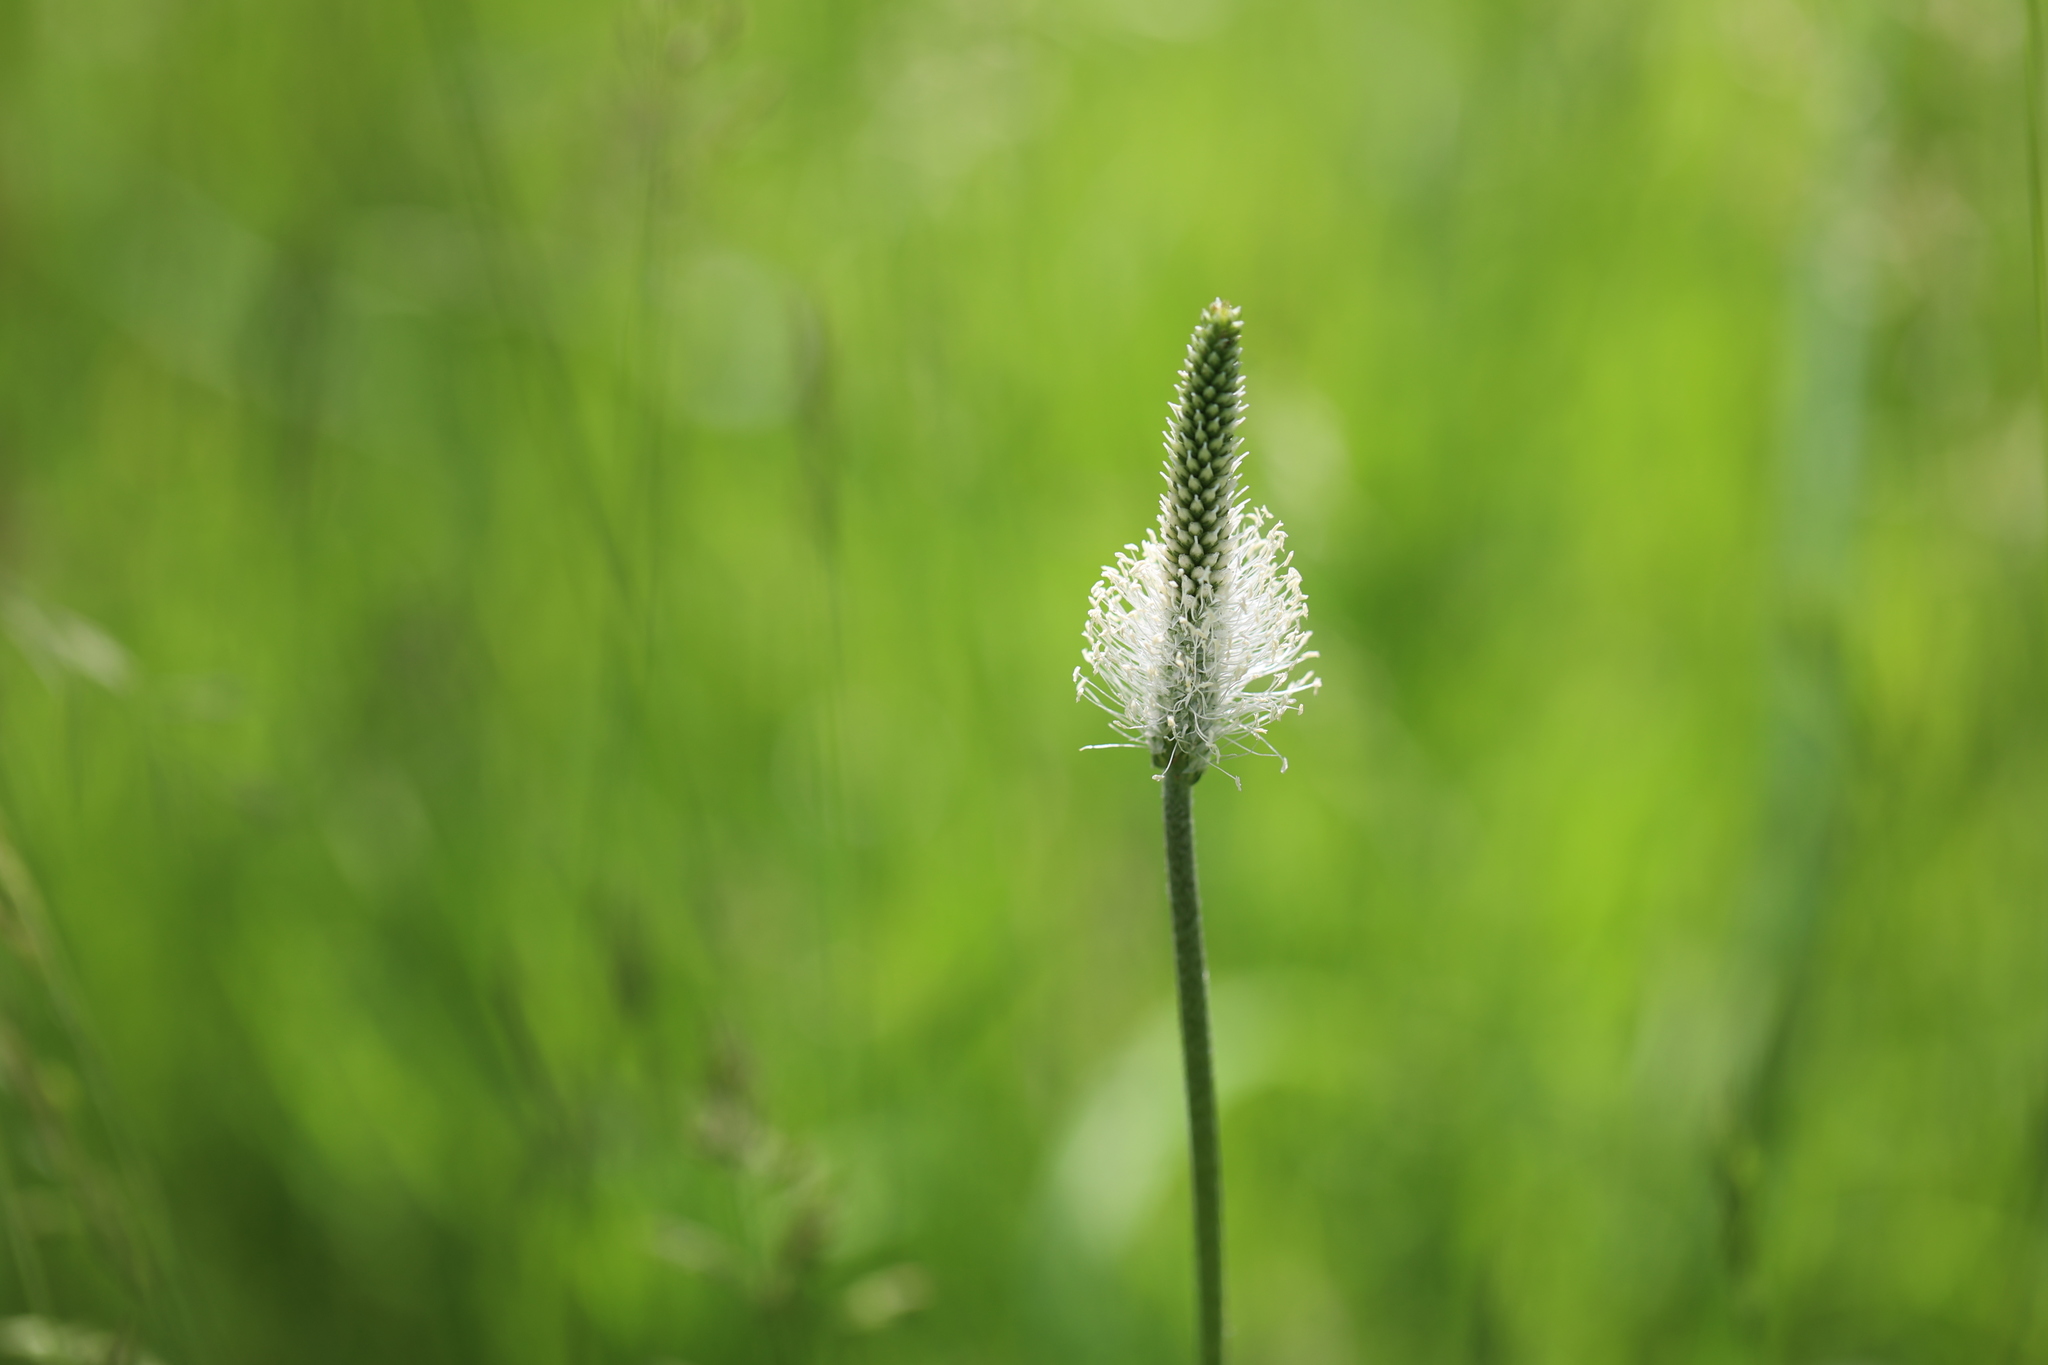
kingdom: Plantae
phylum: Tracheophyta
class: Magnoliopsida
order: Lamiales
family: Plantaginaceae
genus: Plantago
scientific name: Plantago media
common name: Hoary plantain
